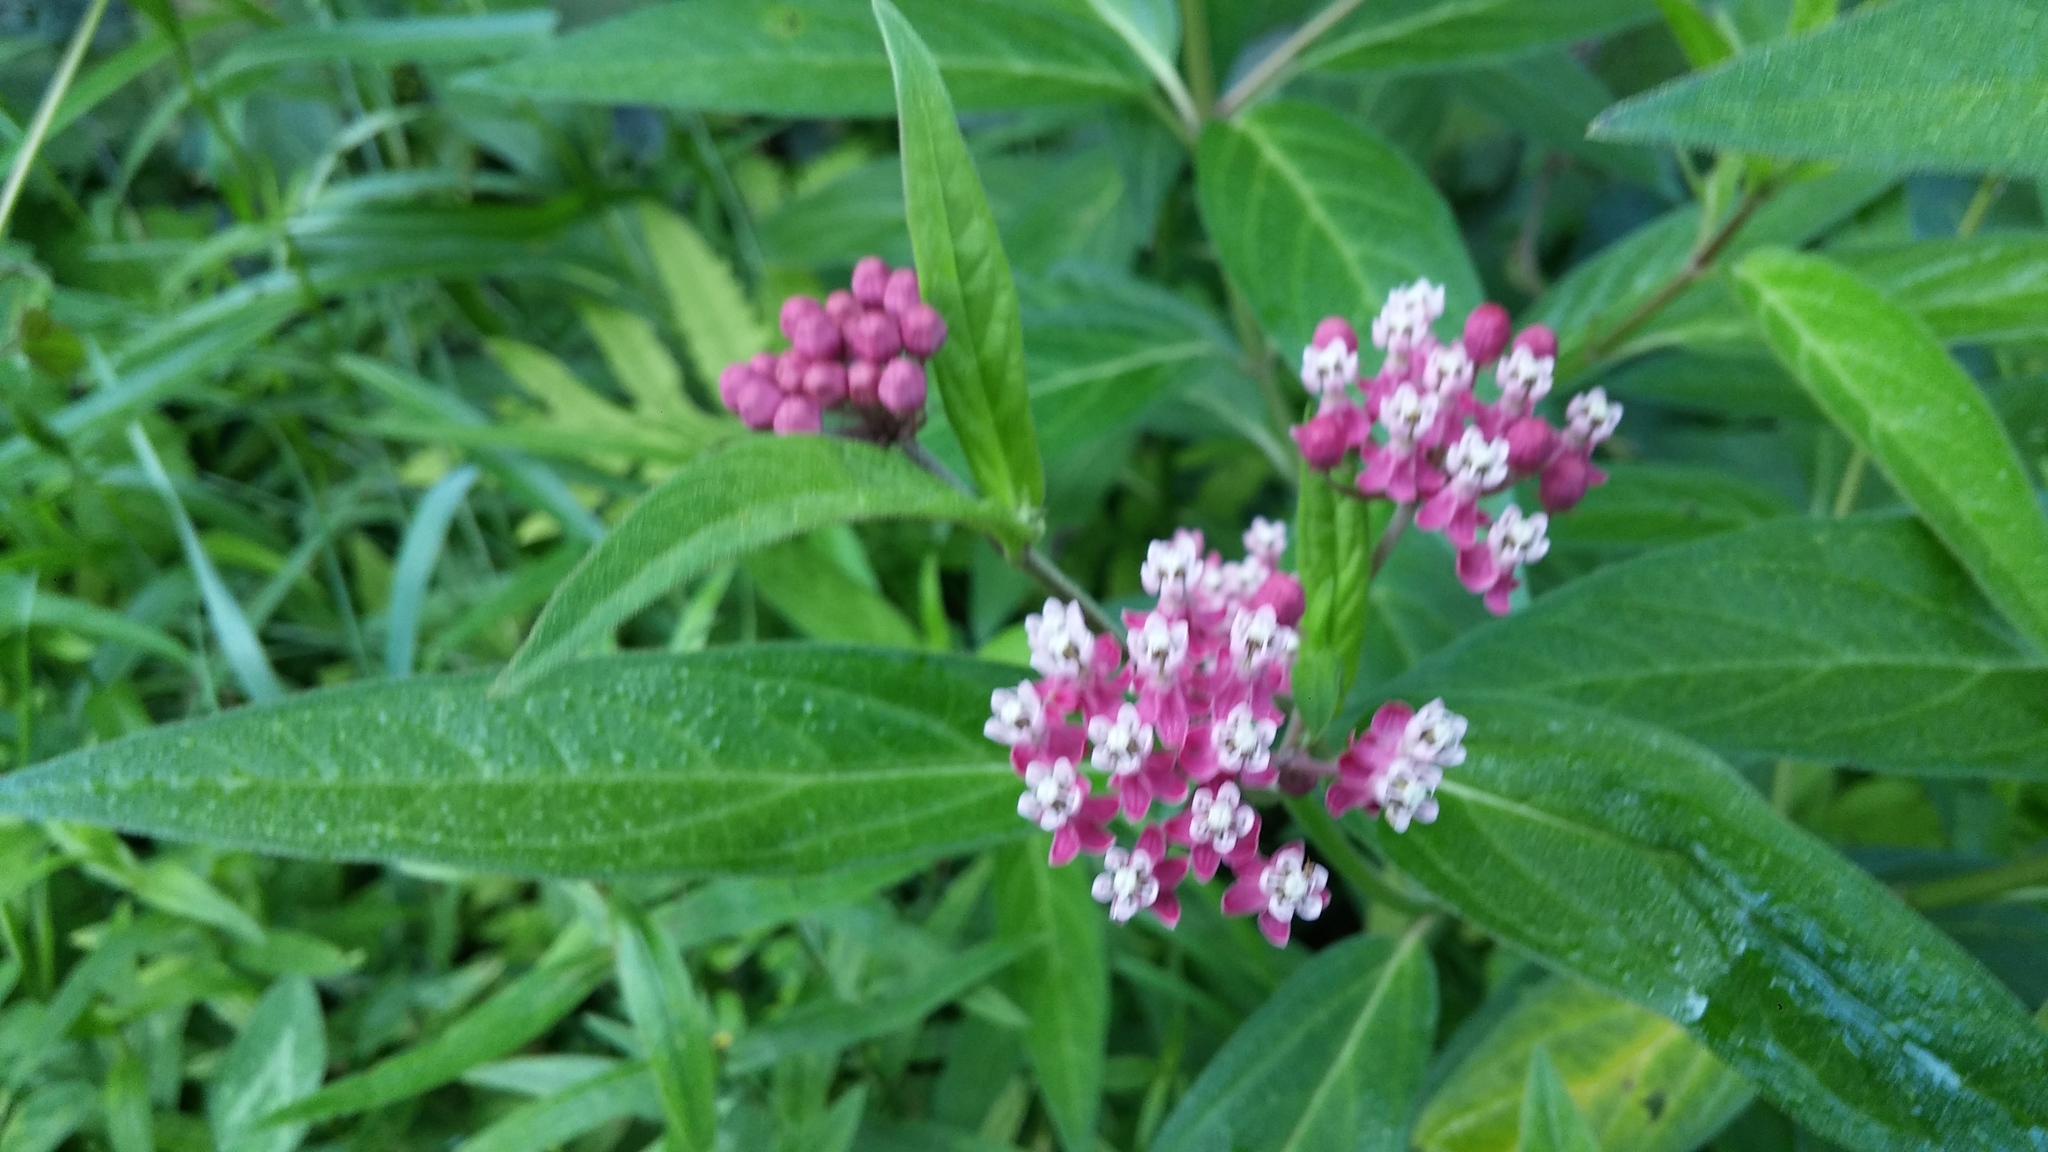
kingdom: Plantae
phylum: Tracheophyta
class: Magnoliopsida
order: Gentianales
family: Apocynaceae
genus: Asclepias
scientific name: Asclepias incarnata
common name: Swamp milkweed
